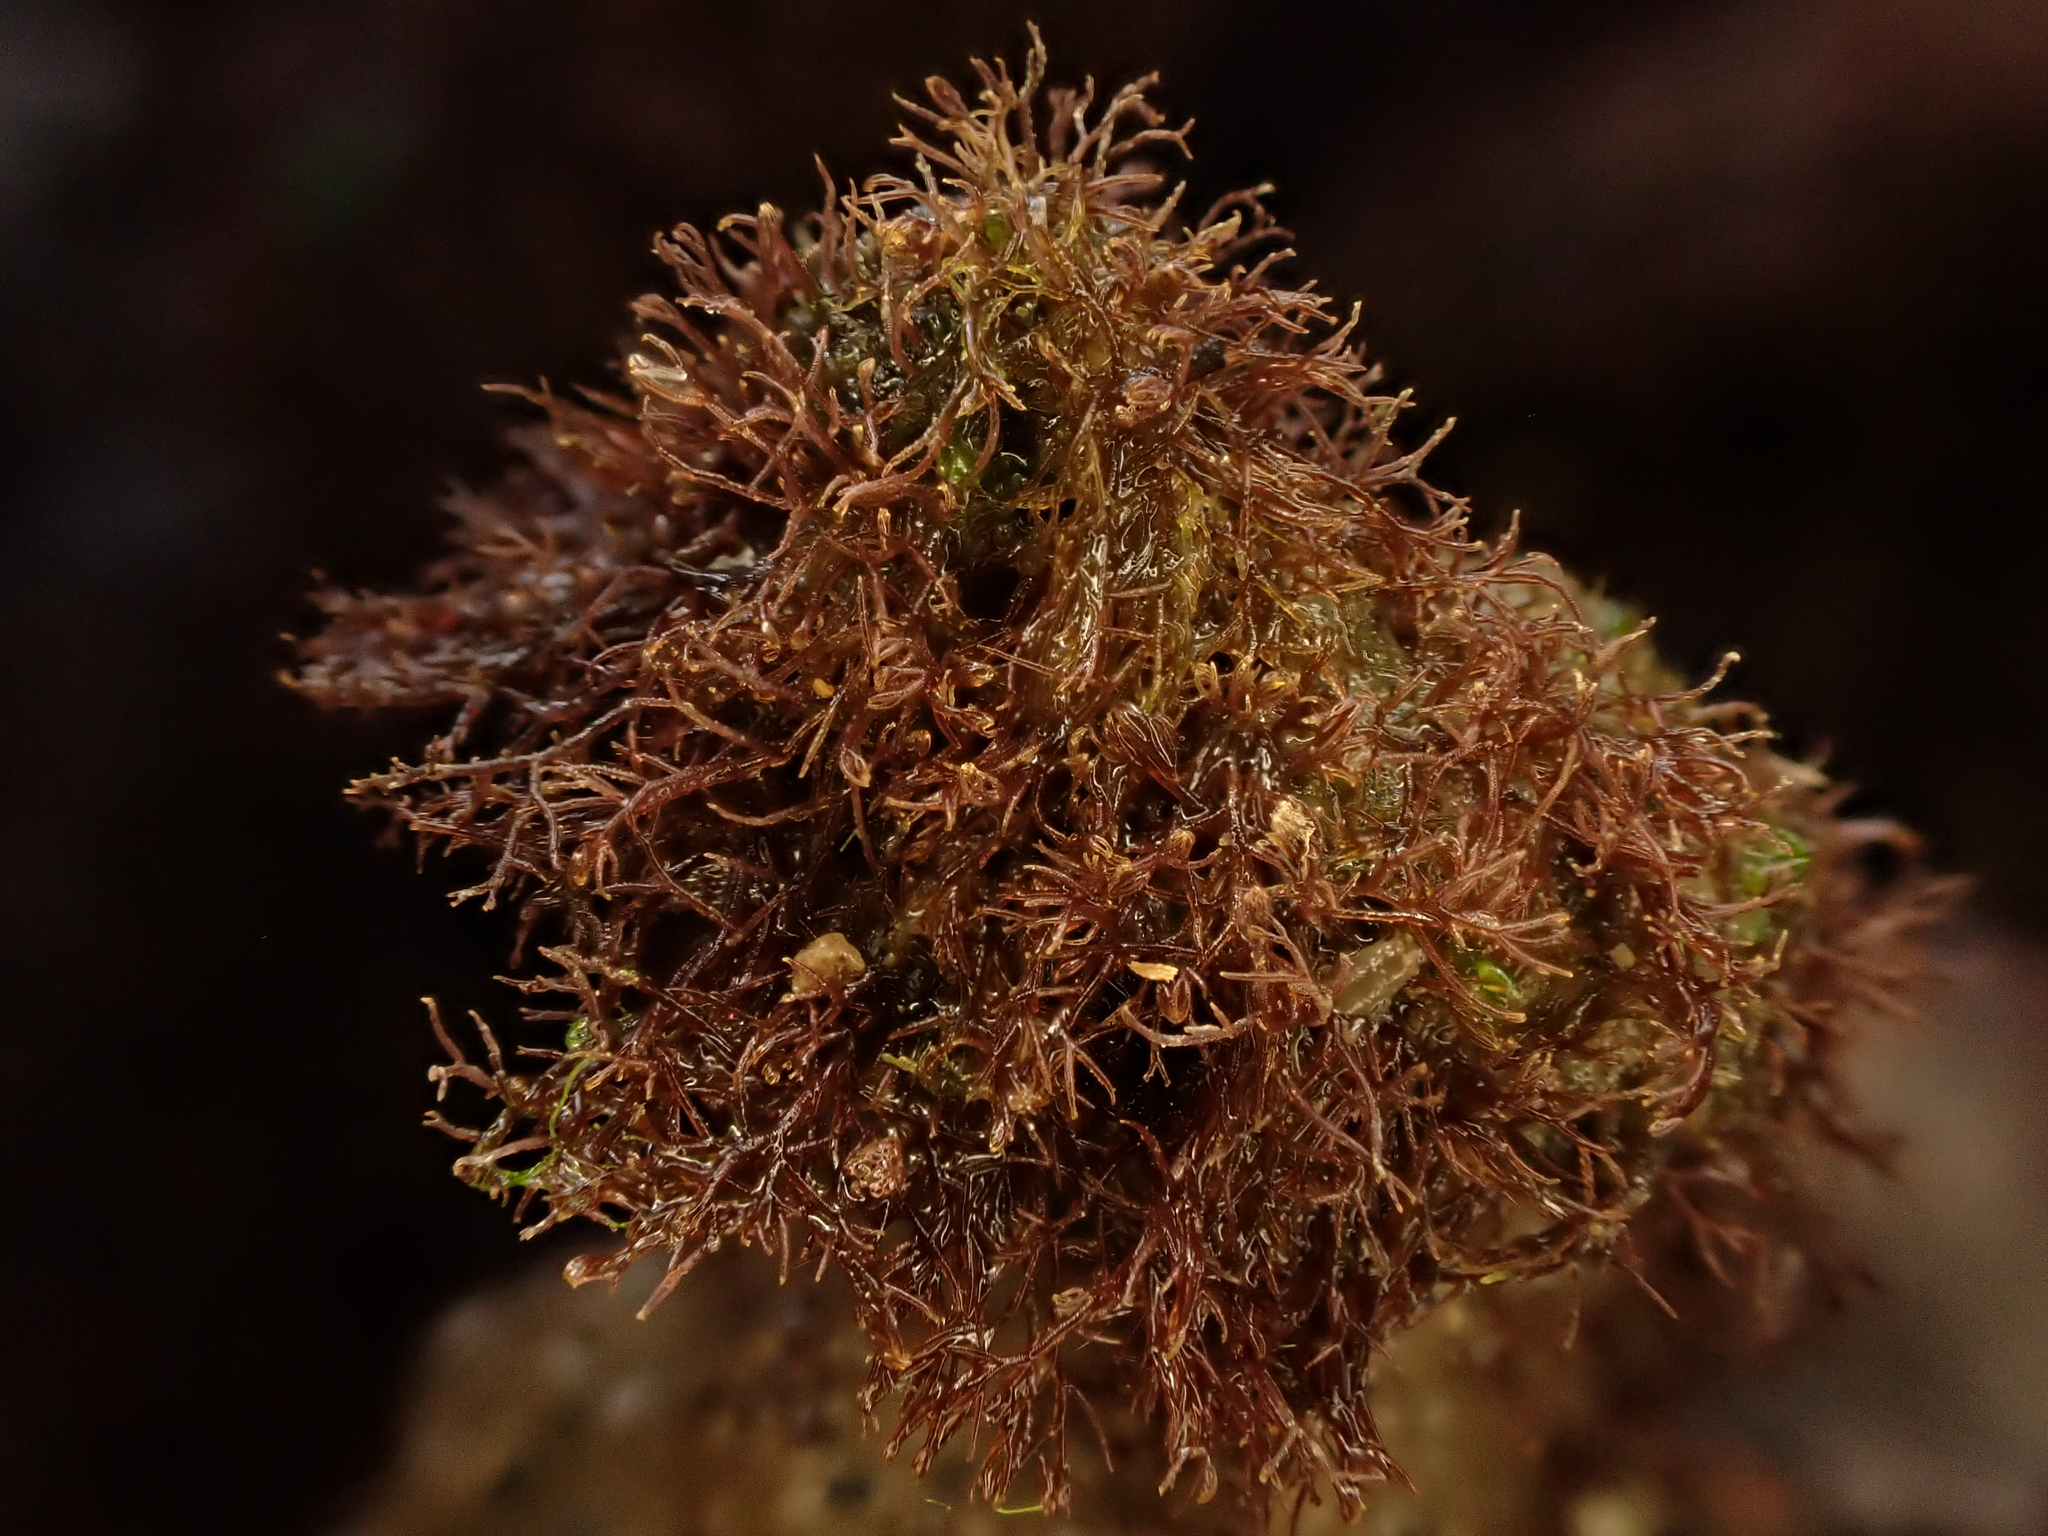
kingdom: Plantae
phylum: Rhodophyta
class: Florideophyceae
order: Gelidiales
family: Gelidiaceae
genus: Gelidium
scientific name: Gelidium caulacantheum
